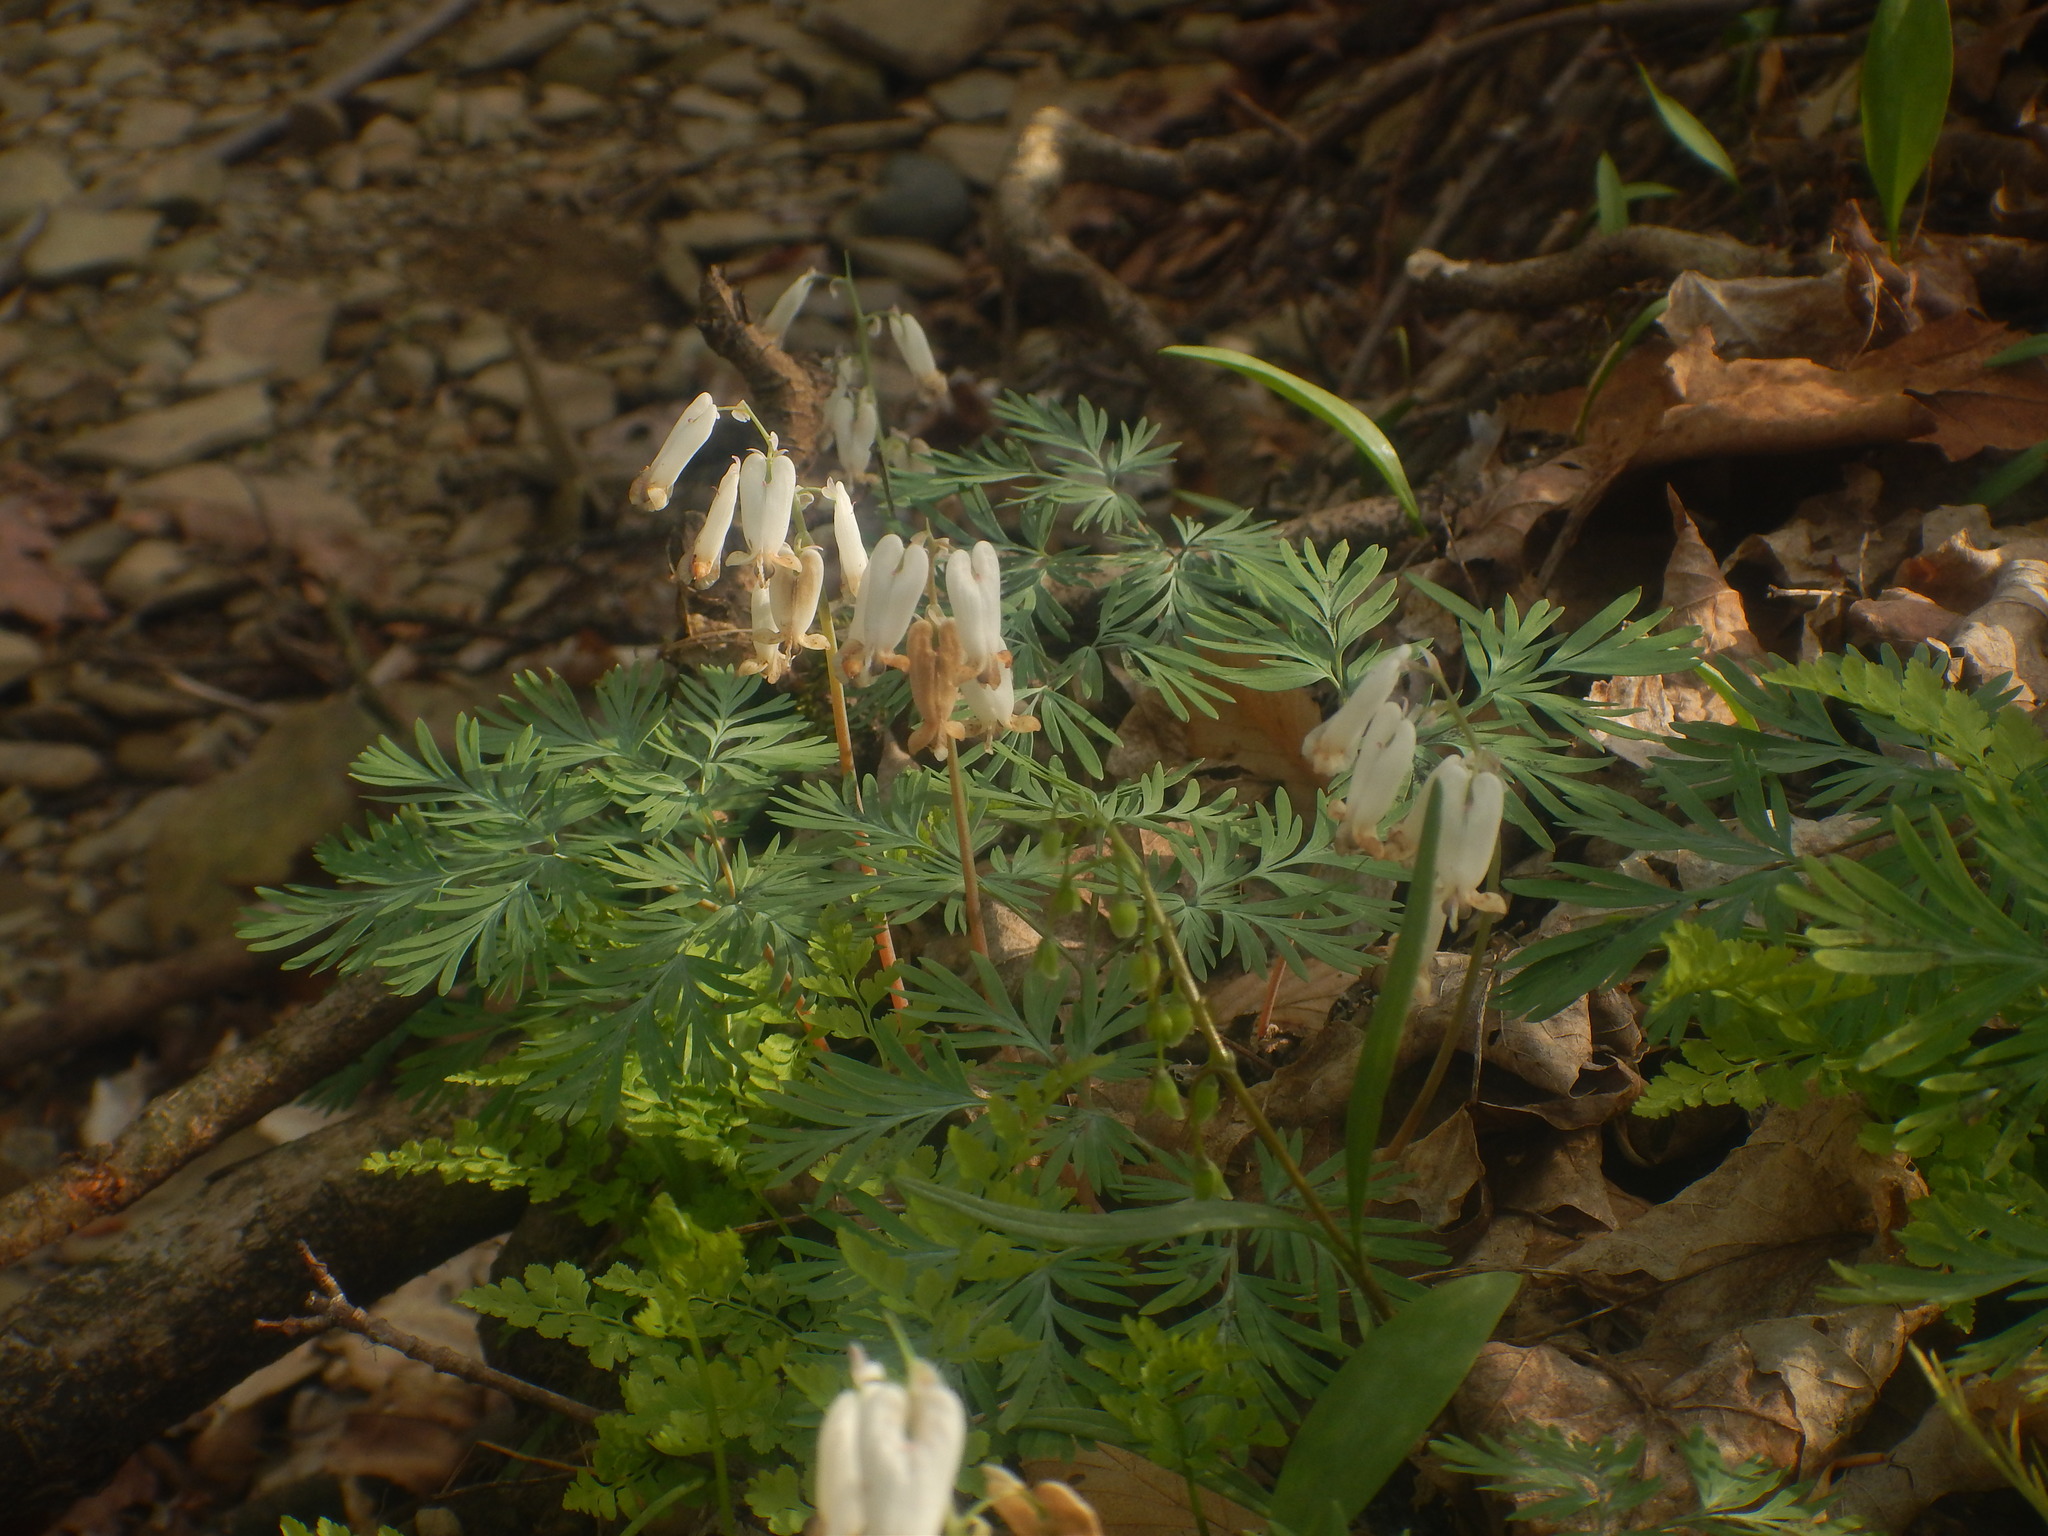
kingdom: Plantae
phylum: Tracheophyta
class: Magnoliopsida
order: Ranunculales
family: Papaveraceae
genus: Dicentra
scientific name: Dicentra canadensis
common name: Squirrel-corn
